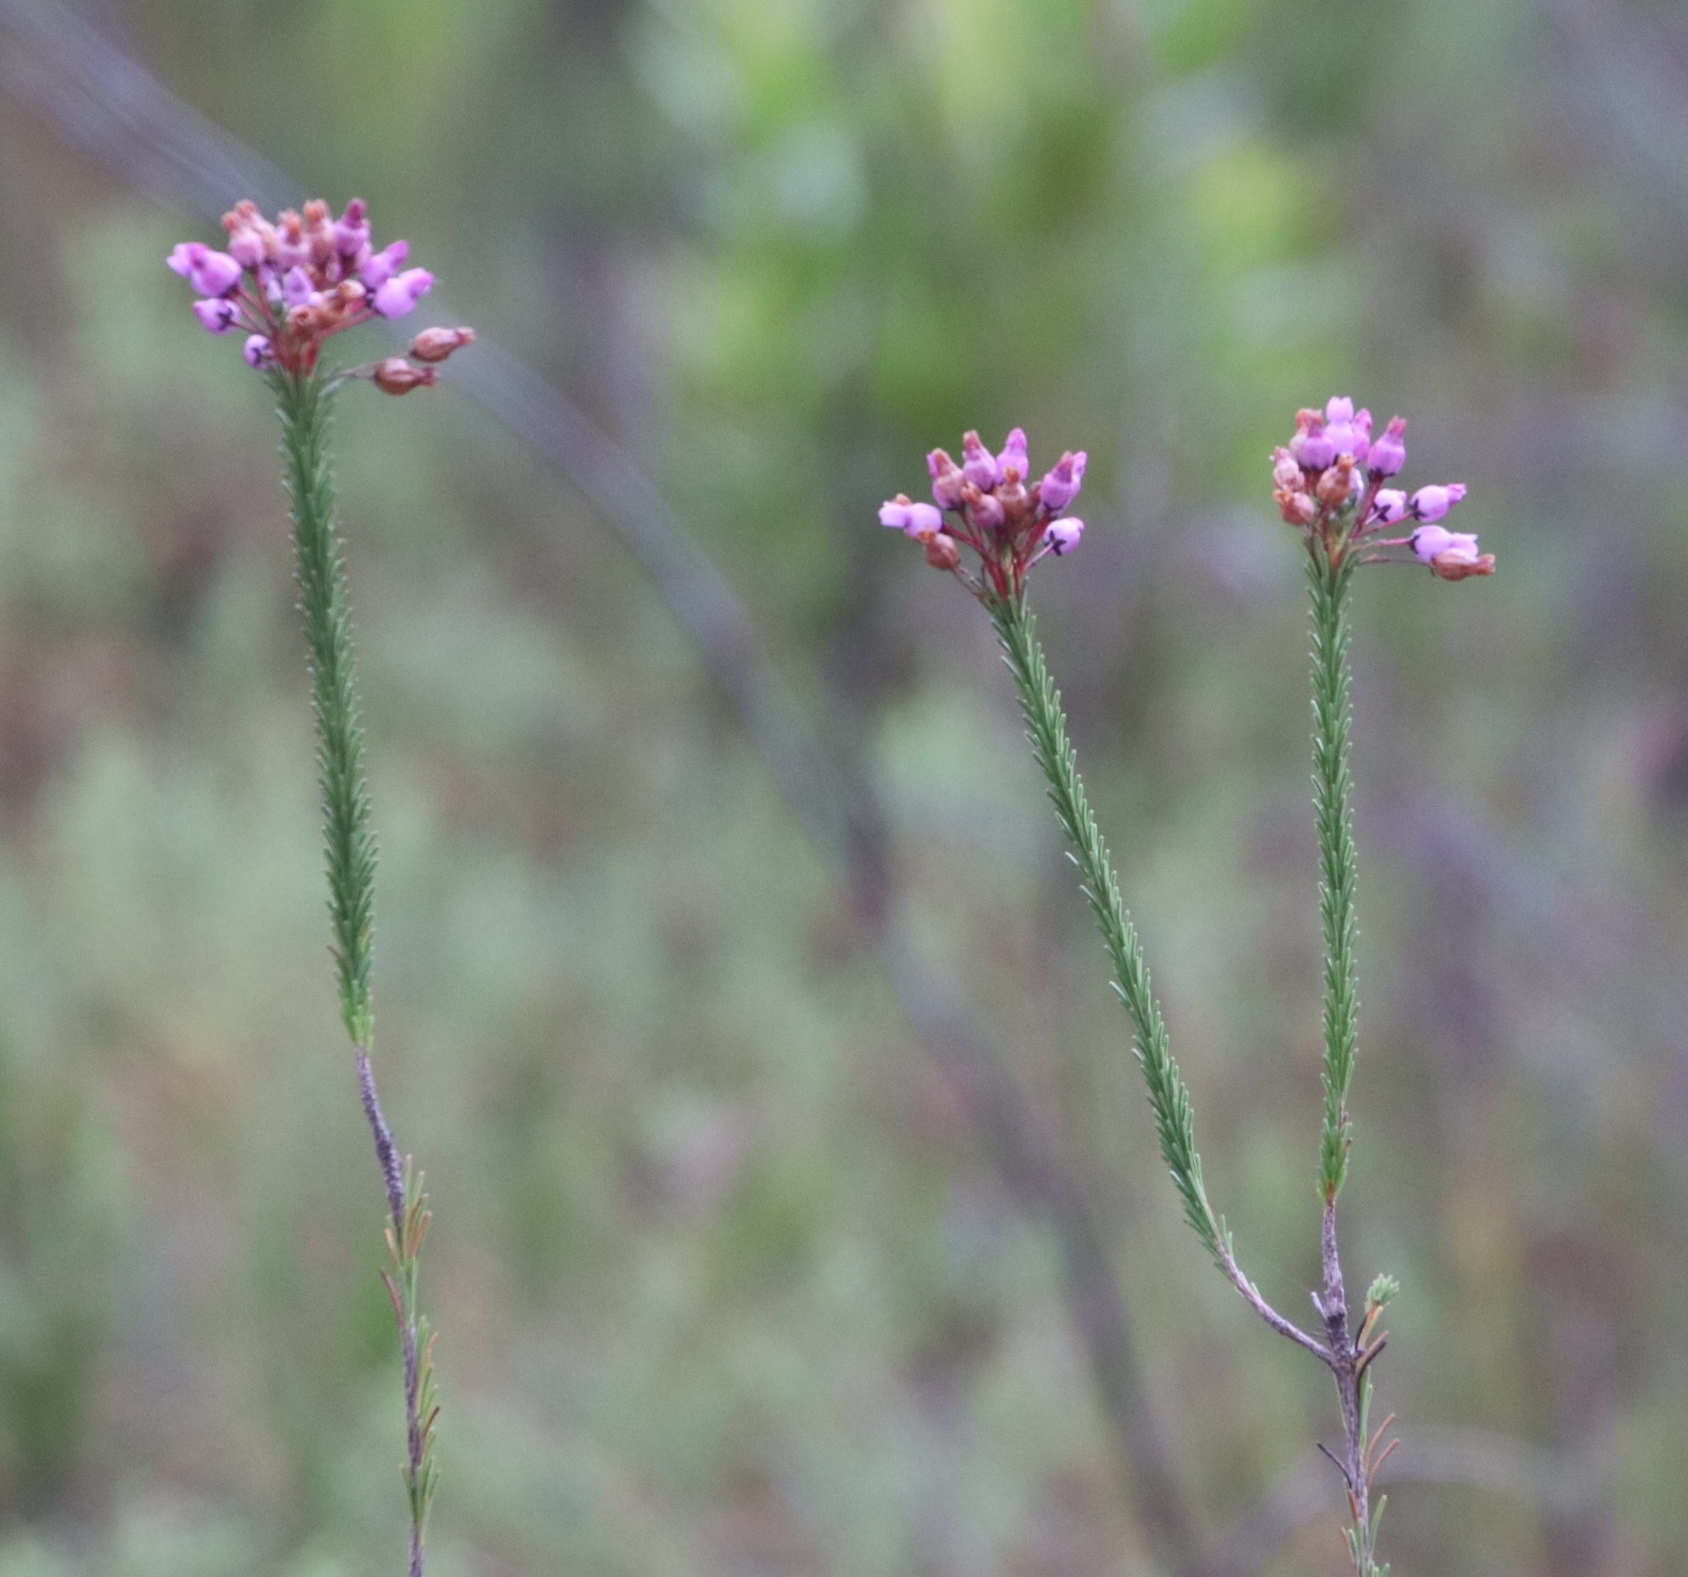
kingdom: Plantae
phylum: Tracheophyta
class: Magnoliopsida
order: Ericales
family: Ericaceae
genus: Erica
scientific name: Erica obliqua
